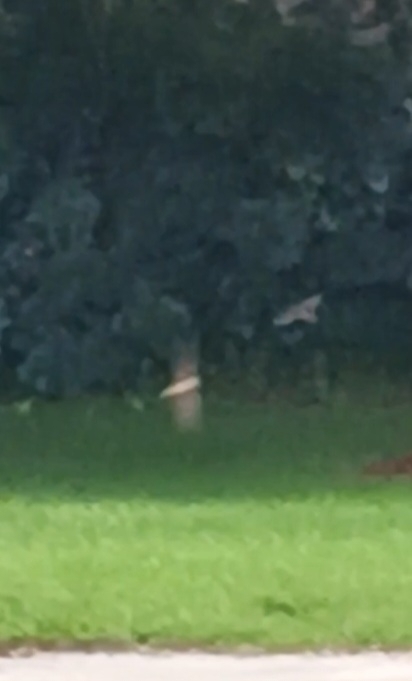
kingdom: Animalia
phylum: Chordata
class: Aves
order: Passeriformes
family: Hirundinidae
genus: Hirundo
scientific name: Hirundo rustica
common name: Barn swallow
